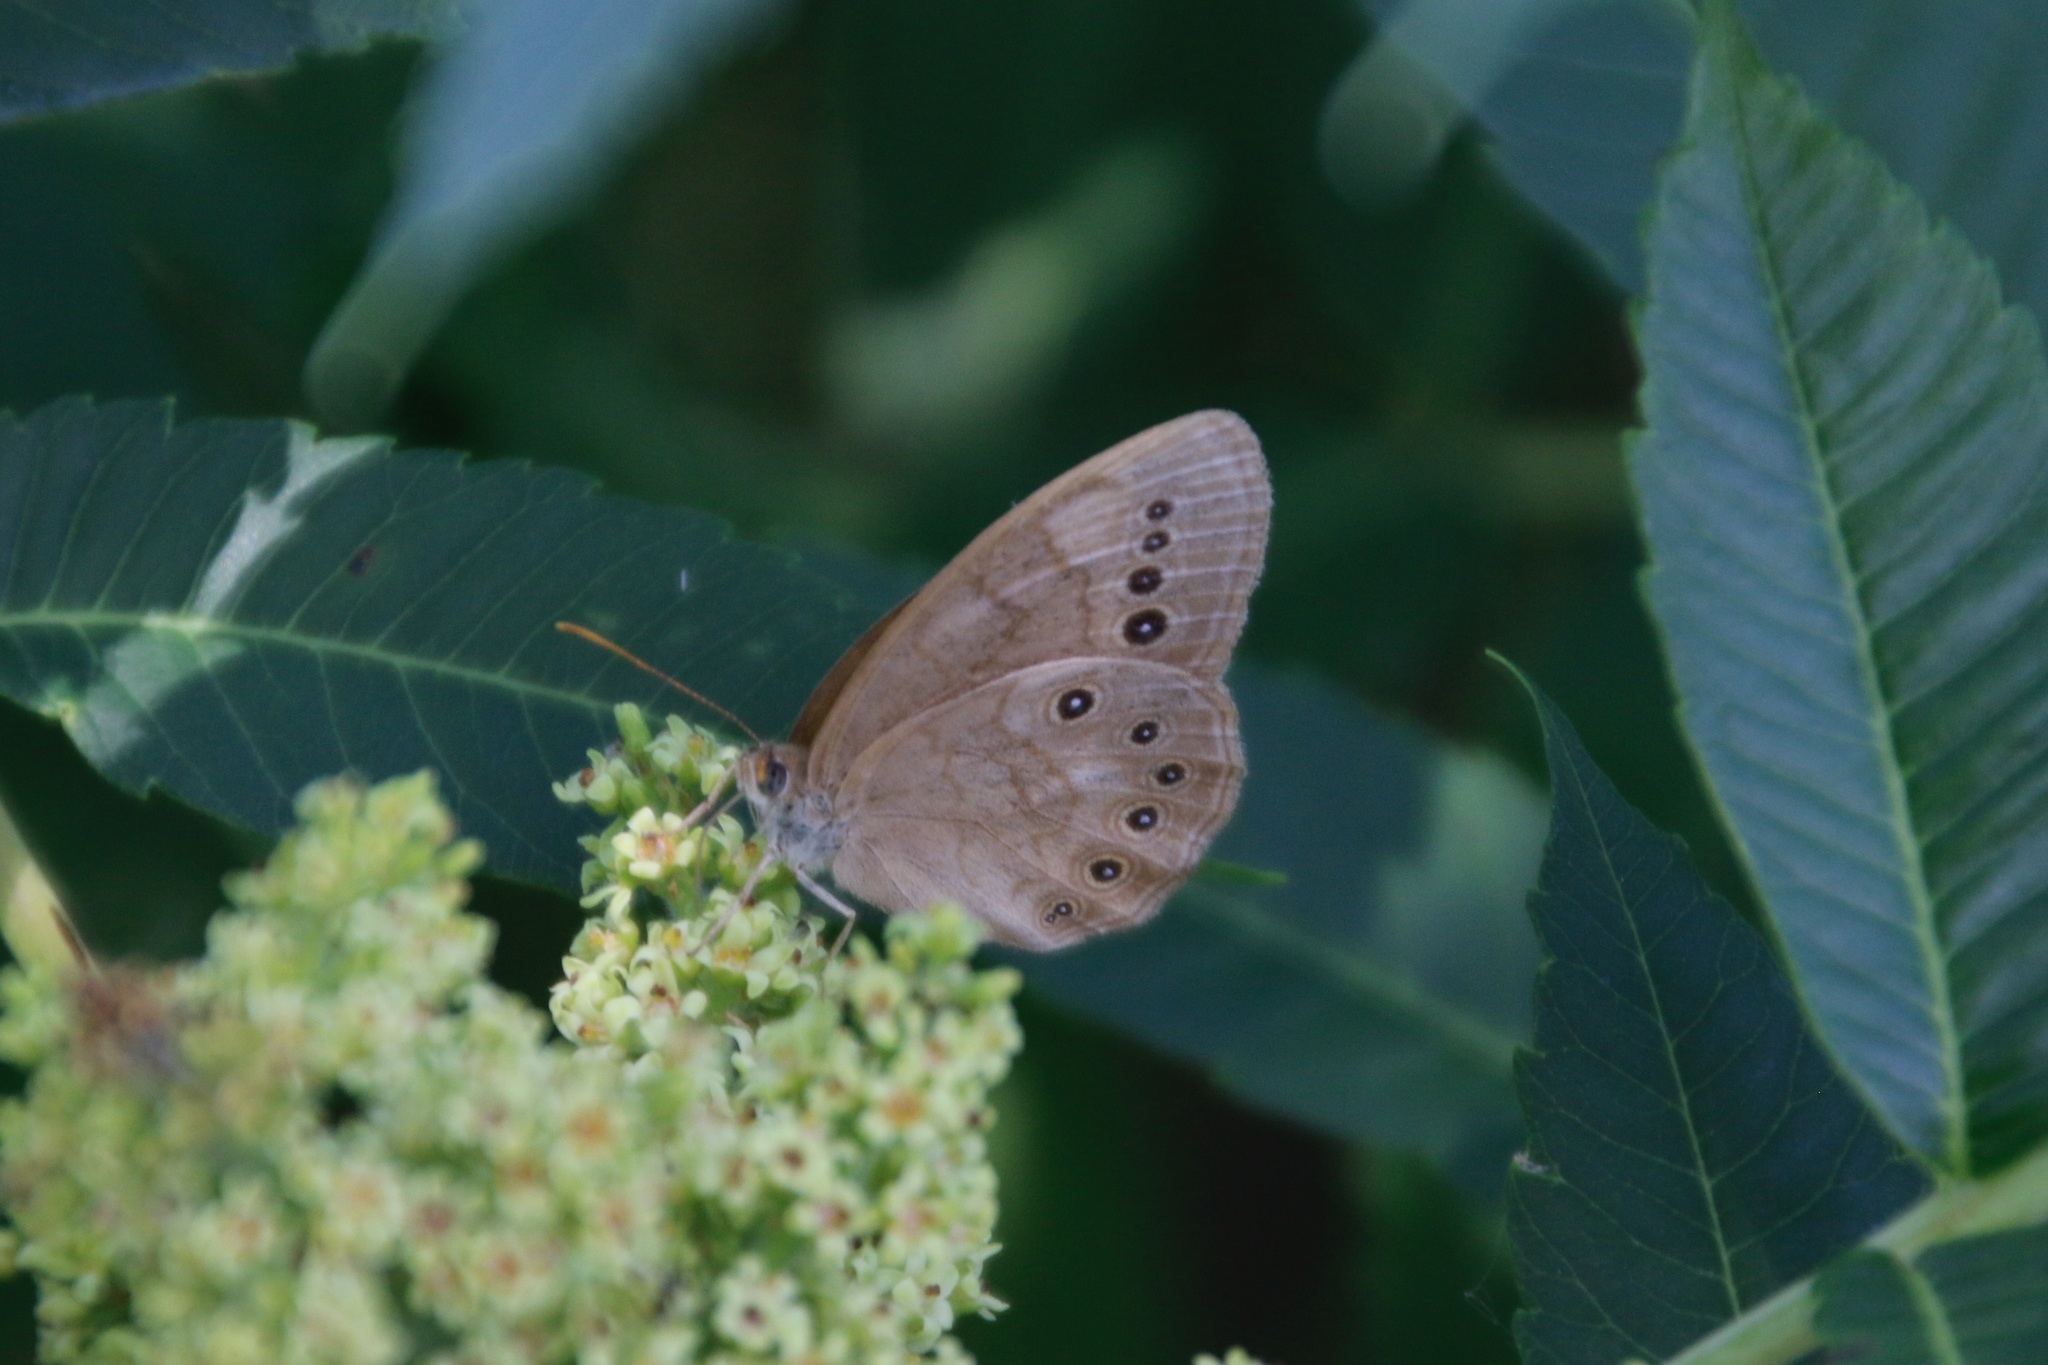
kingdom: Animalia
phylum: Arthropoda
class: Insecta
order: Lepidoptera
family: Nymphalidae
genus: Lethe
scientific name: Lethe eurydice
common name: Eyed brown
